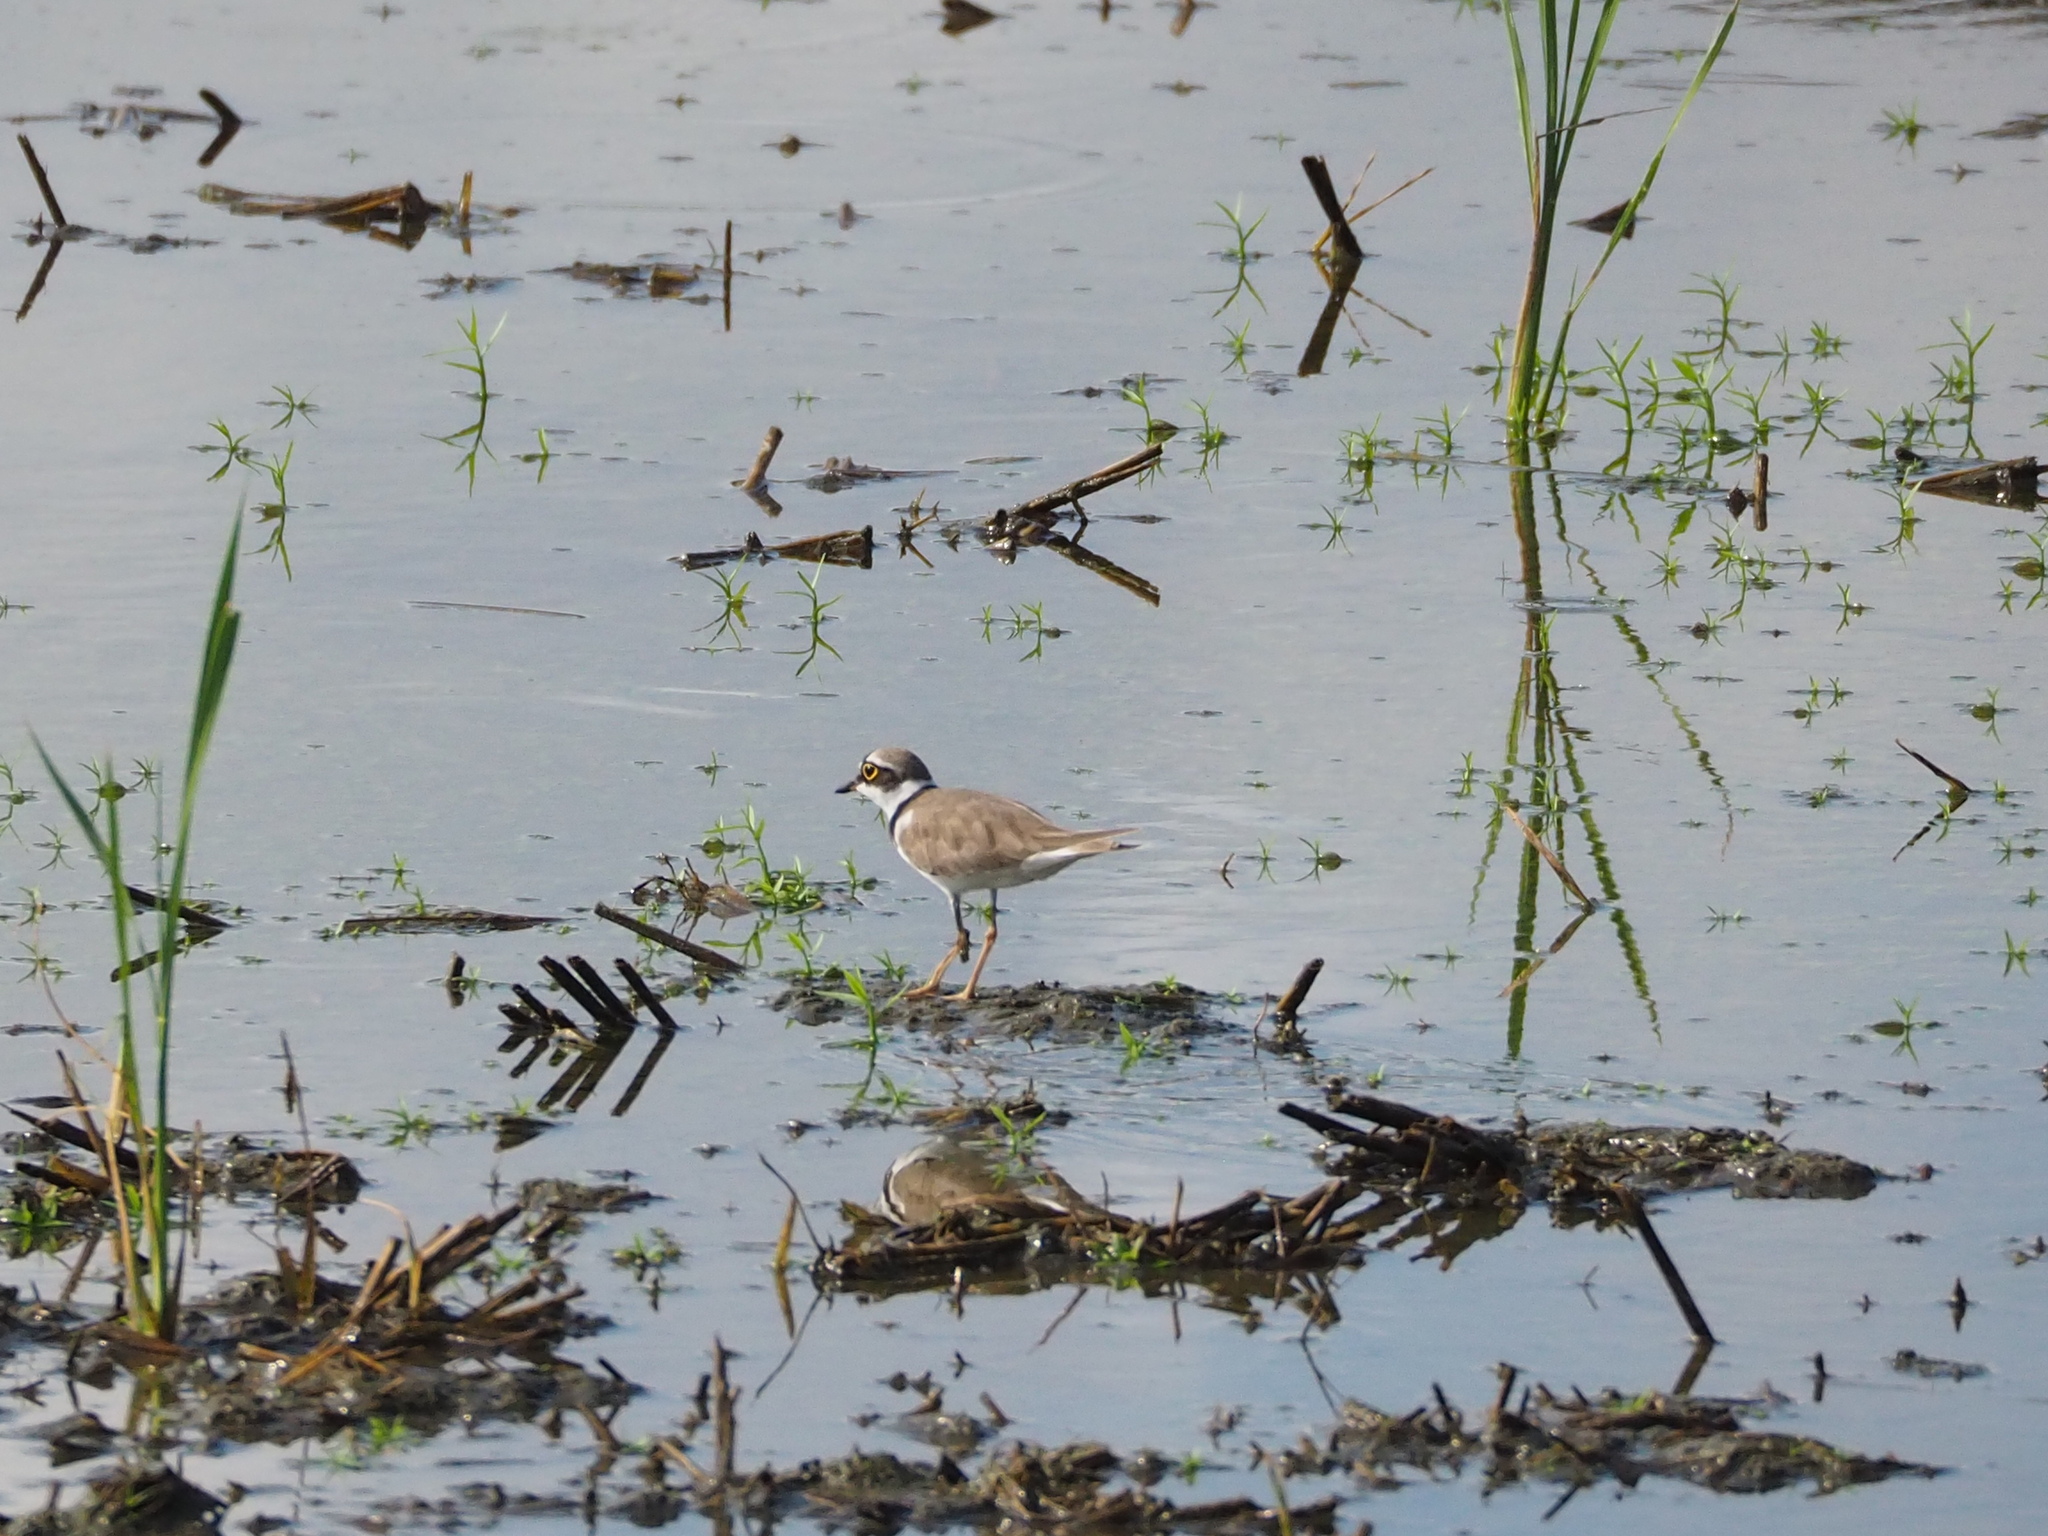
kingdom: Animalia
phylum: Chordata
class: Aves
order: Charadriiformes
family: Charadriidae
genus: Charadrius
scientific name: Charadrius dubius
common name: Little ringed plover
